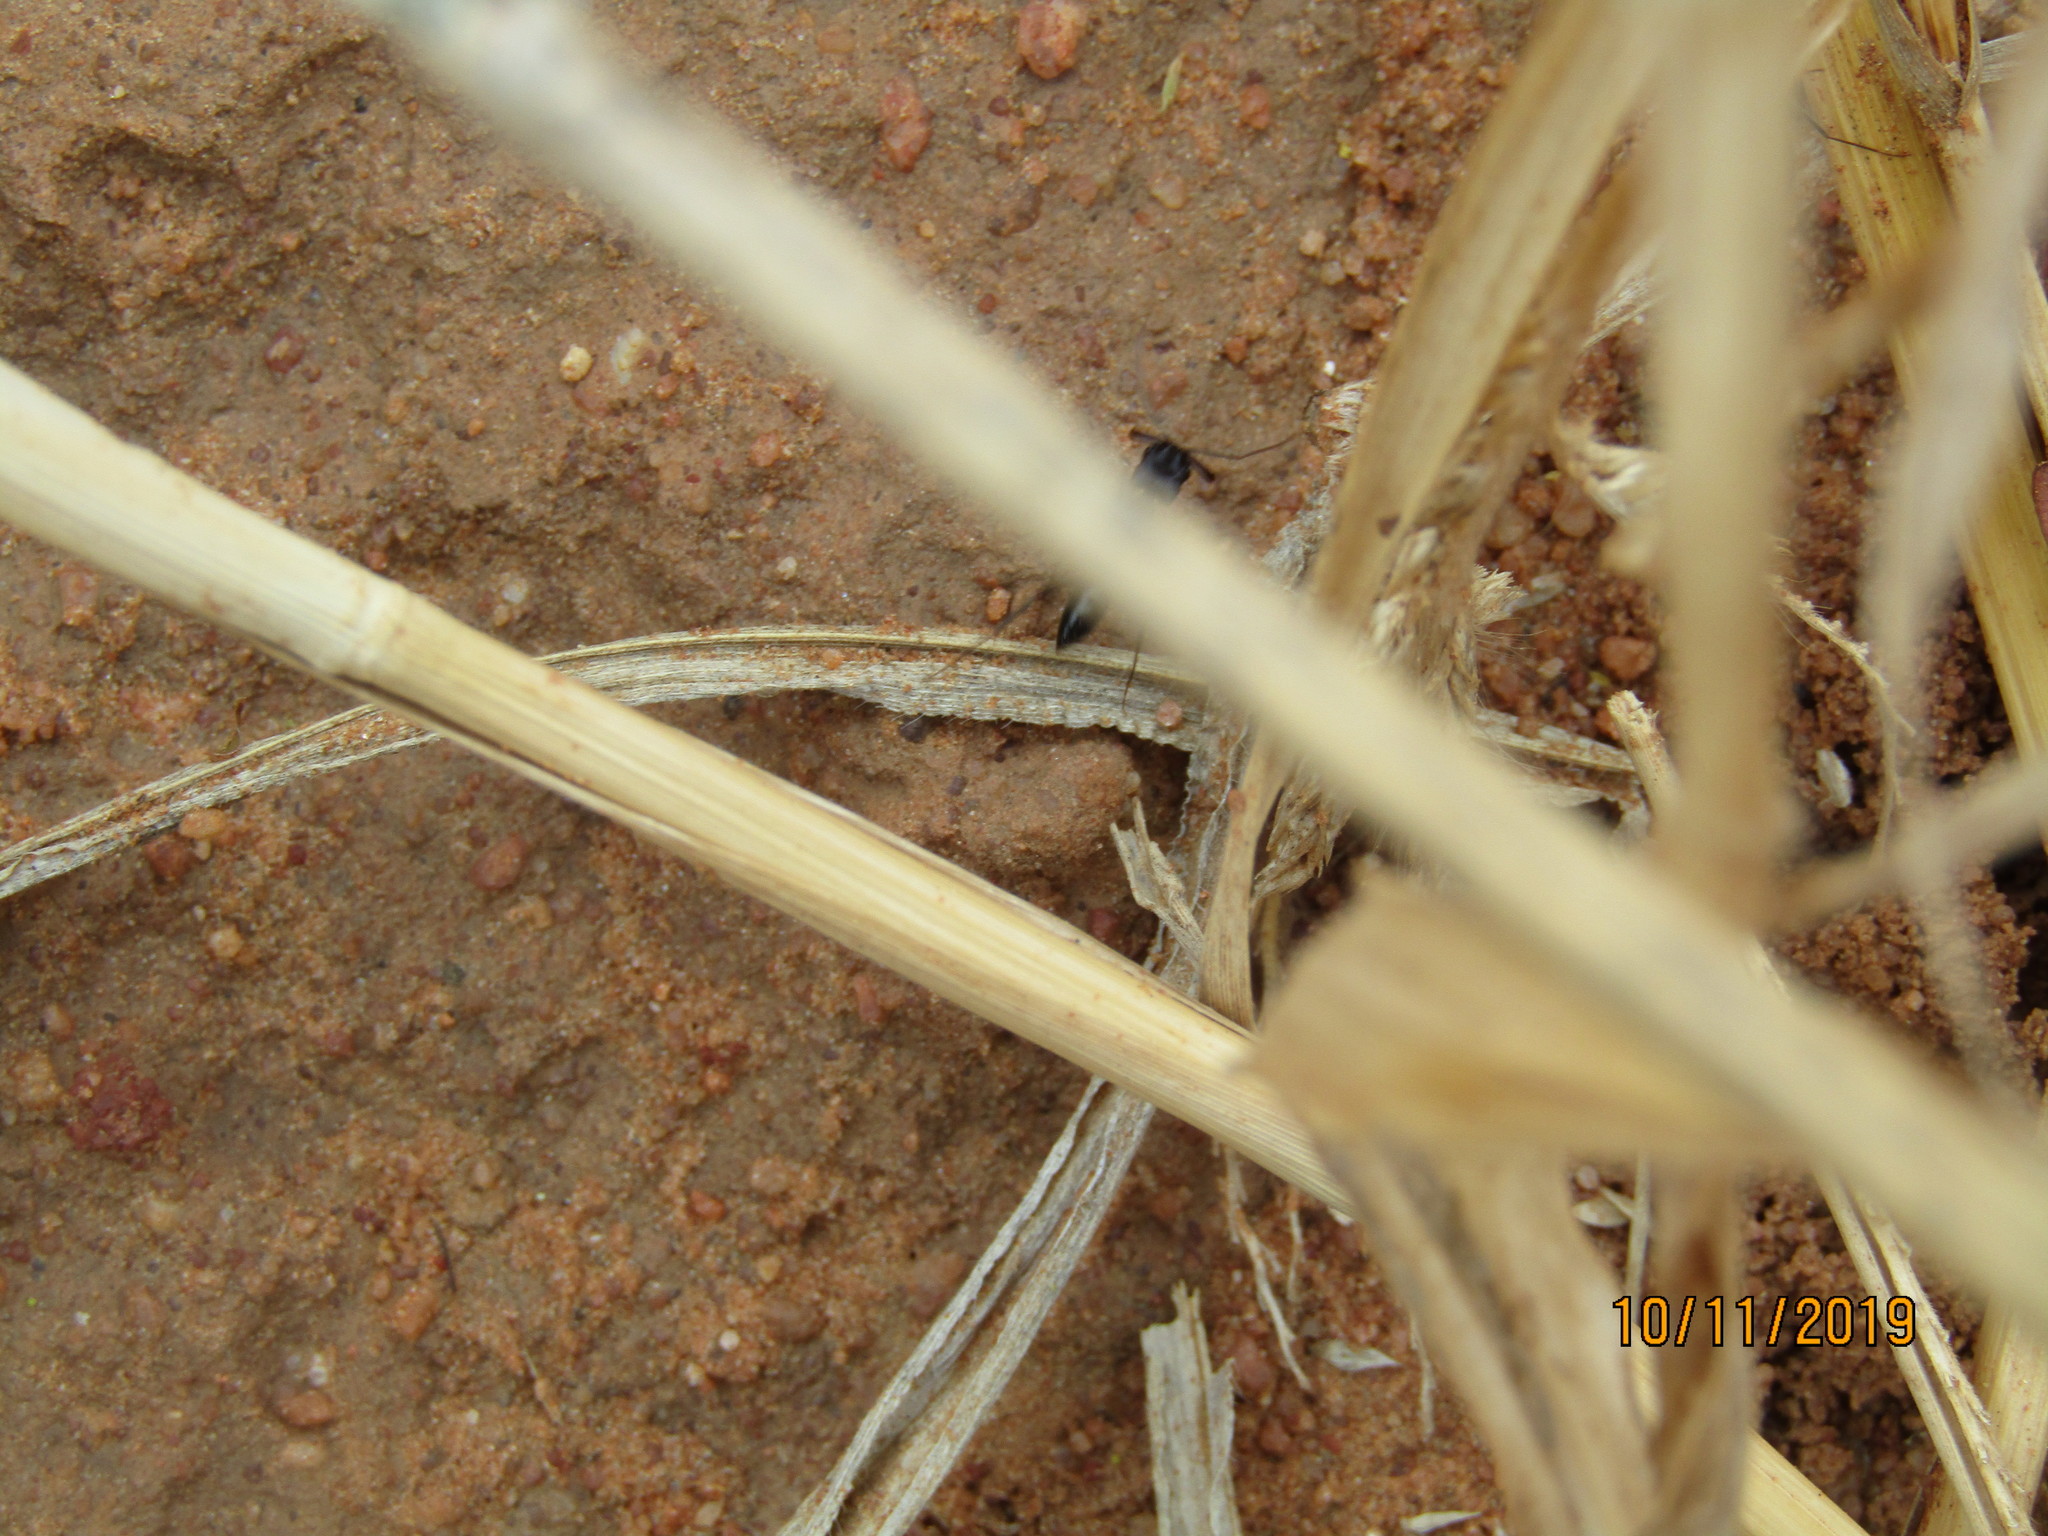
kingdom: Animalia
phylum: Arthropoda
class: Insecta
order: Hymenoptera
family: Formicidae
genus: Odontomachus
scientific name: Odontomachus troglodytes
